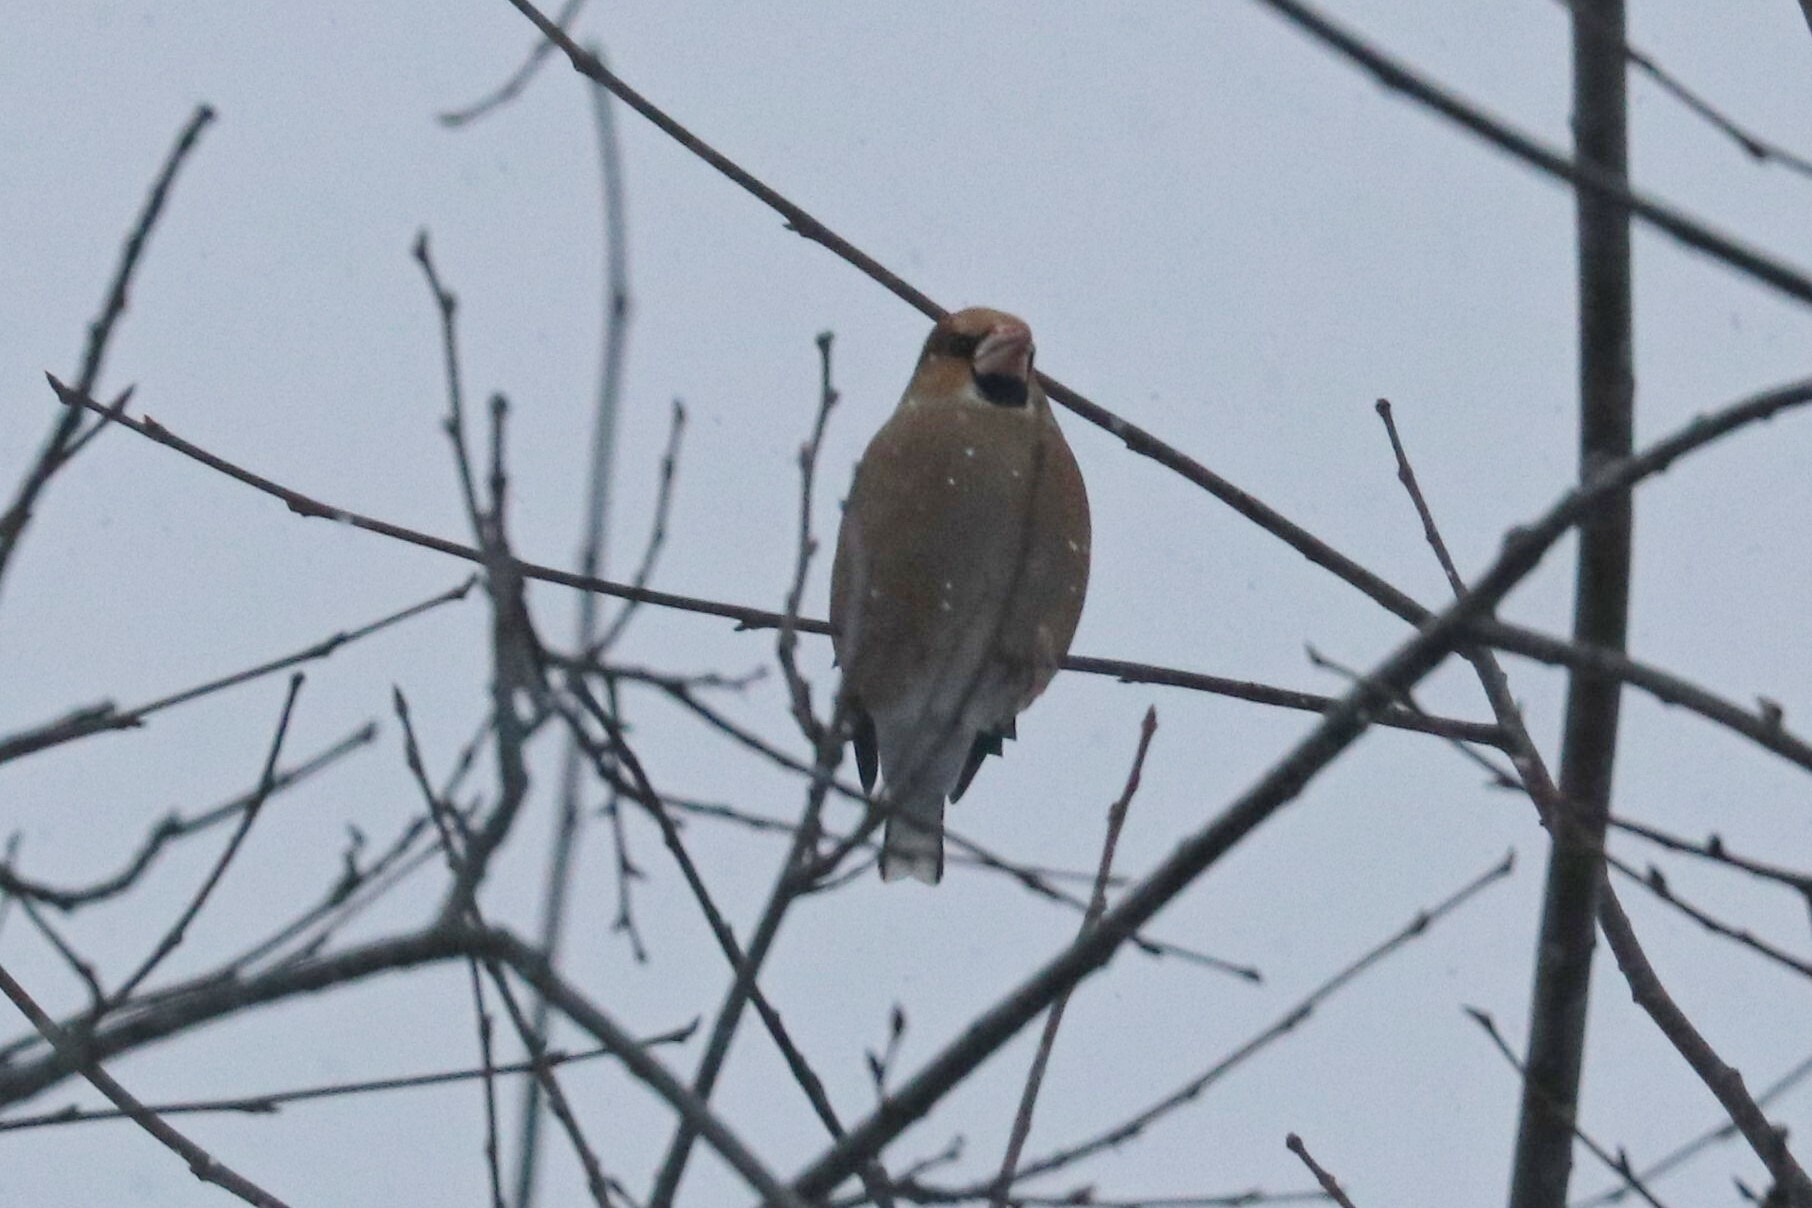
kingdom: Animalia
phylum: Chordata
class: Aves
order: Passeriformes
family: Fringillidae
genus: Coccothraustes
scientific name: Coccothraustes coccothraustes
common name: Hawfinch
